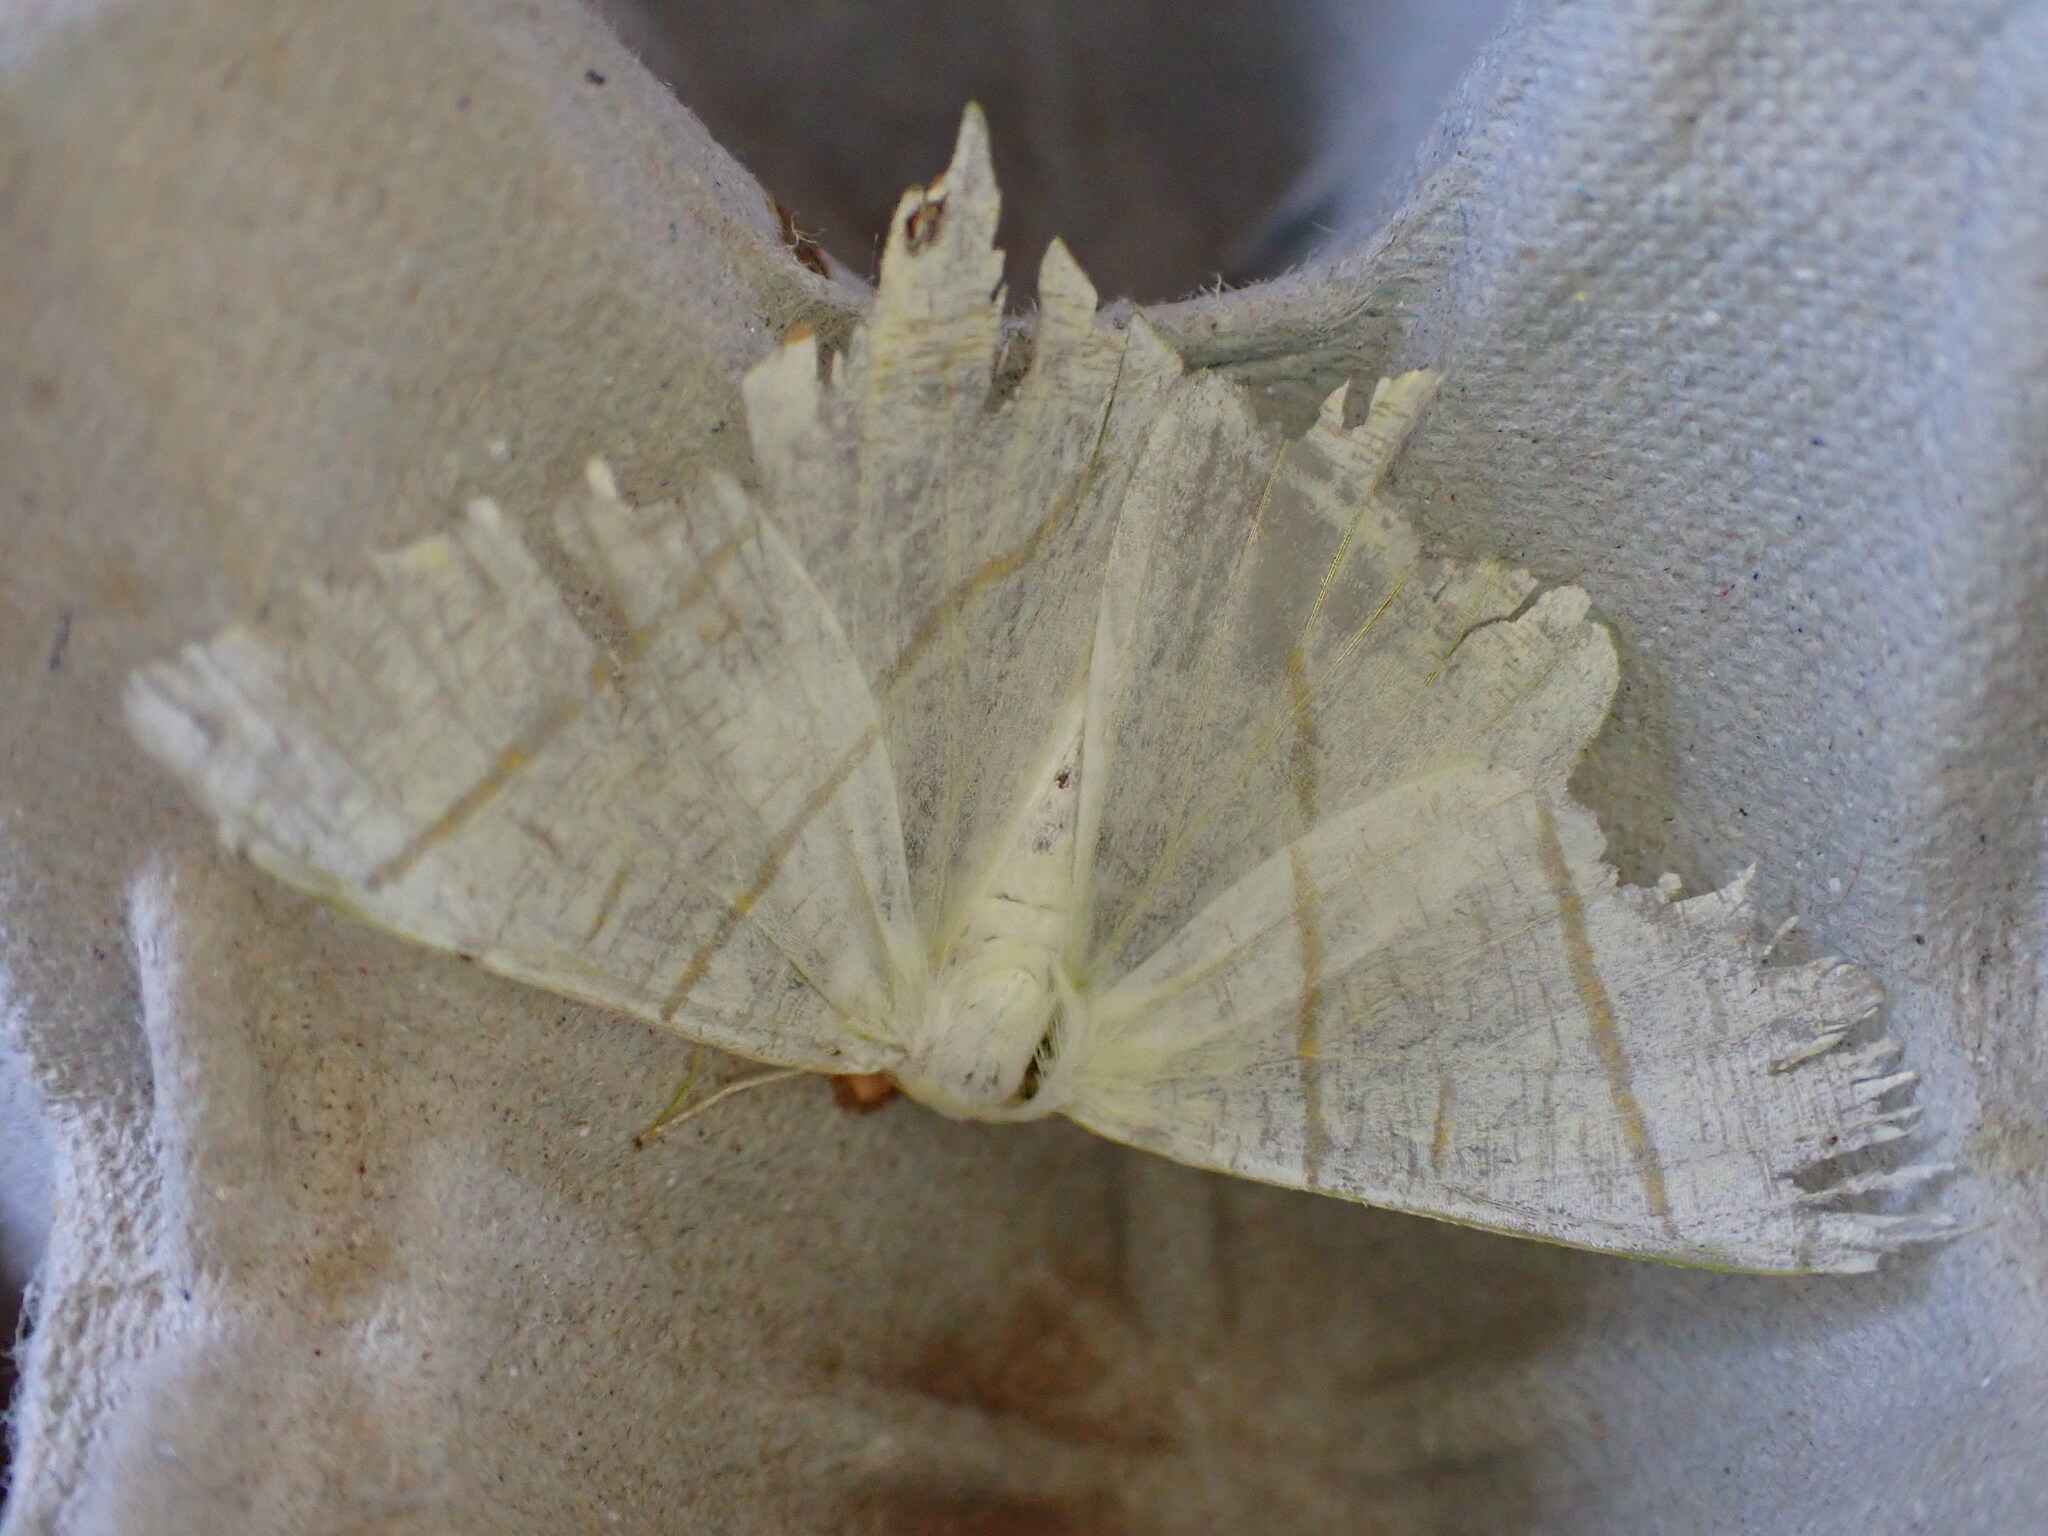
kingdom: Animalia
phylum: Arthropoda
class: Insecta
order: Lepidoptera
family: Geometridae
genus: Ourapteryx
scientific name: Ourapteryx sambucaria
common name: Swallow-tailed moth
